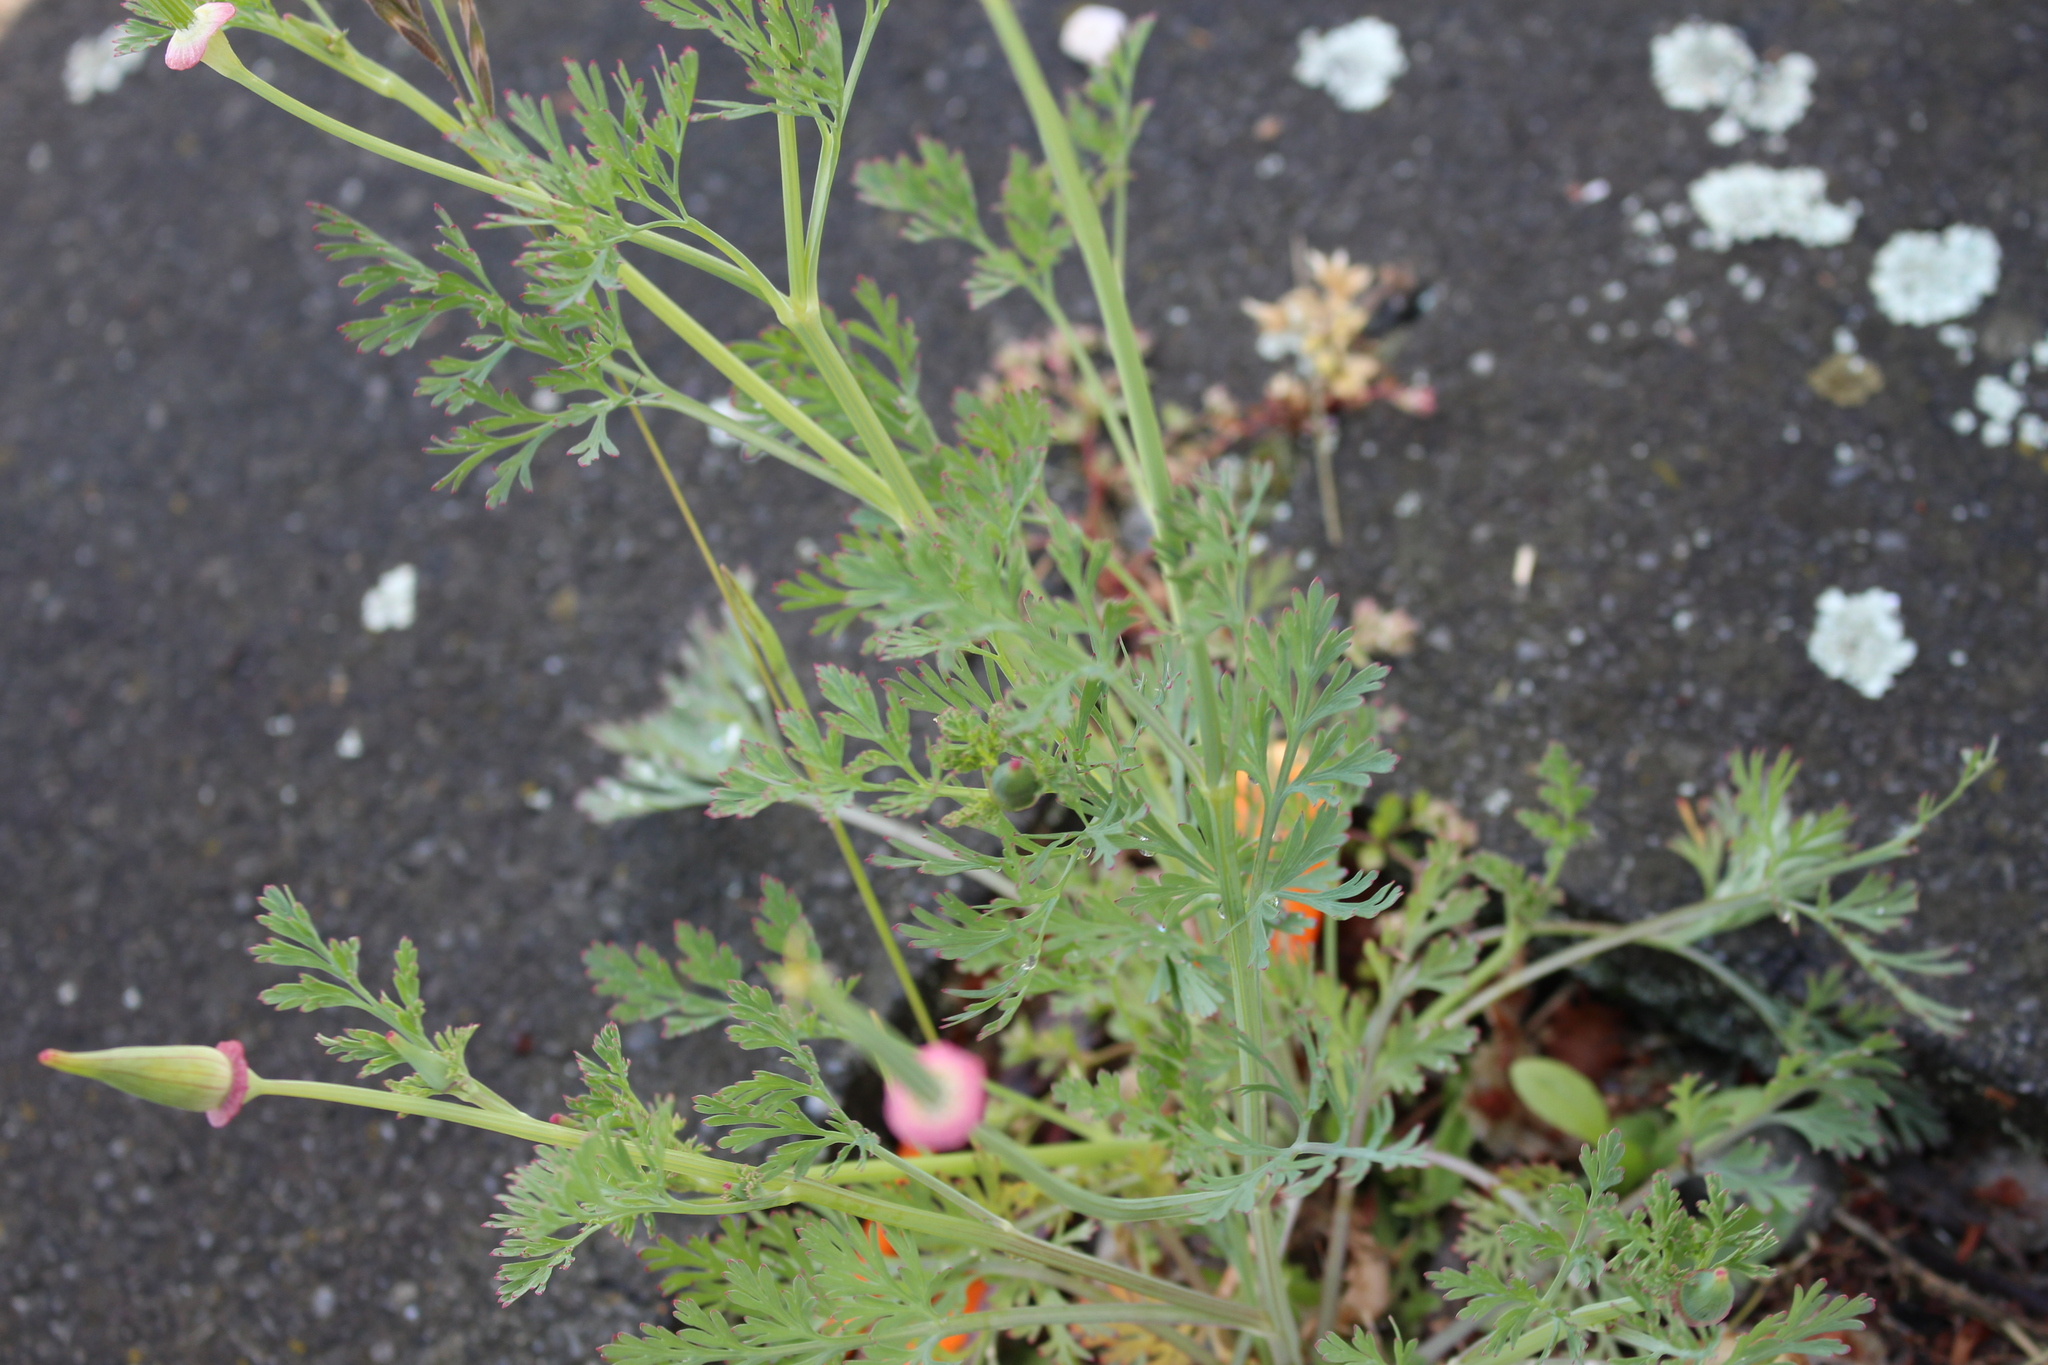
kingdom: Plantae
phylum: Tracheophyta
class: Magnoliopsida
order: Ranunculales
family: Papaveraceae
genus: Eschscholzia
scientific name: Eschscholzia californica
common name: California poppy
